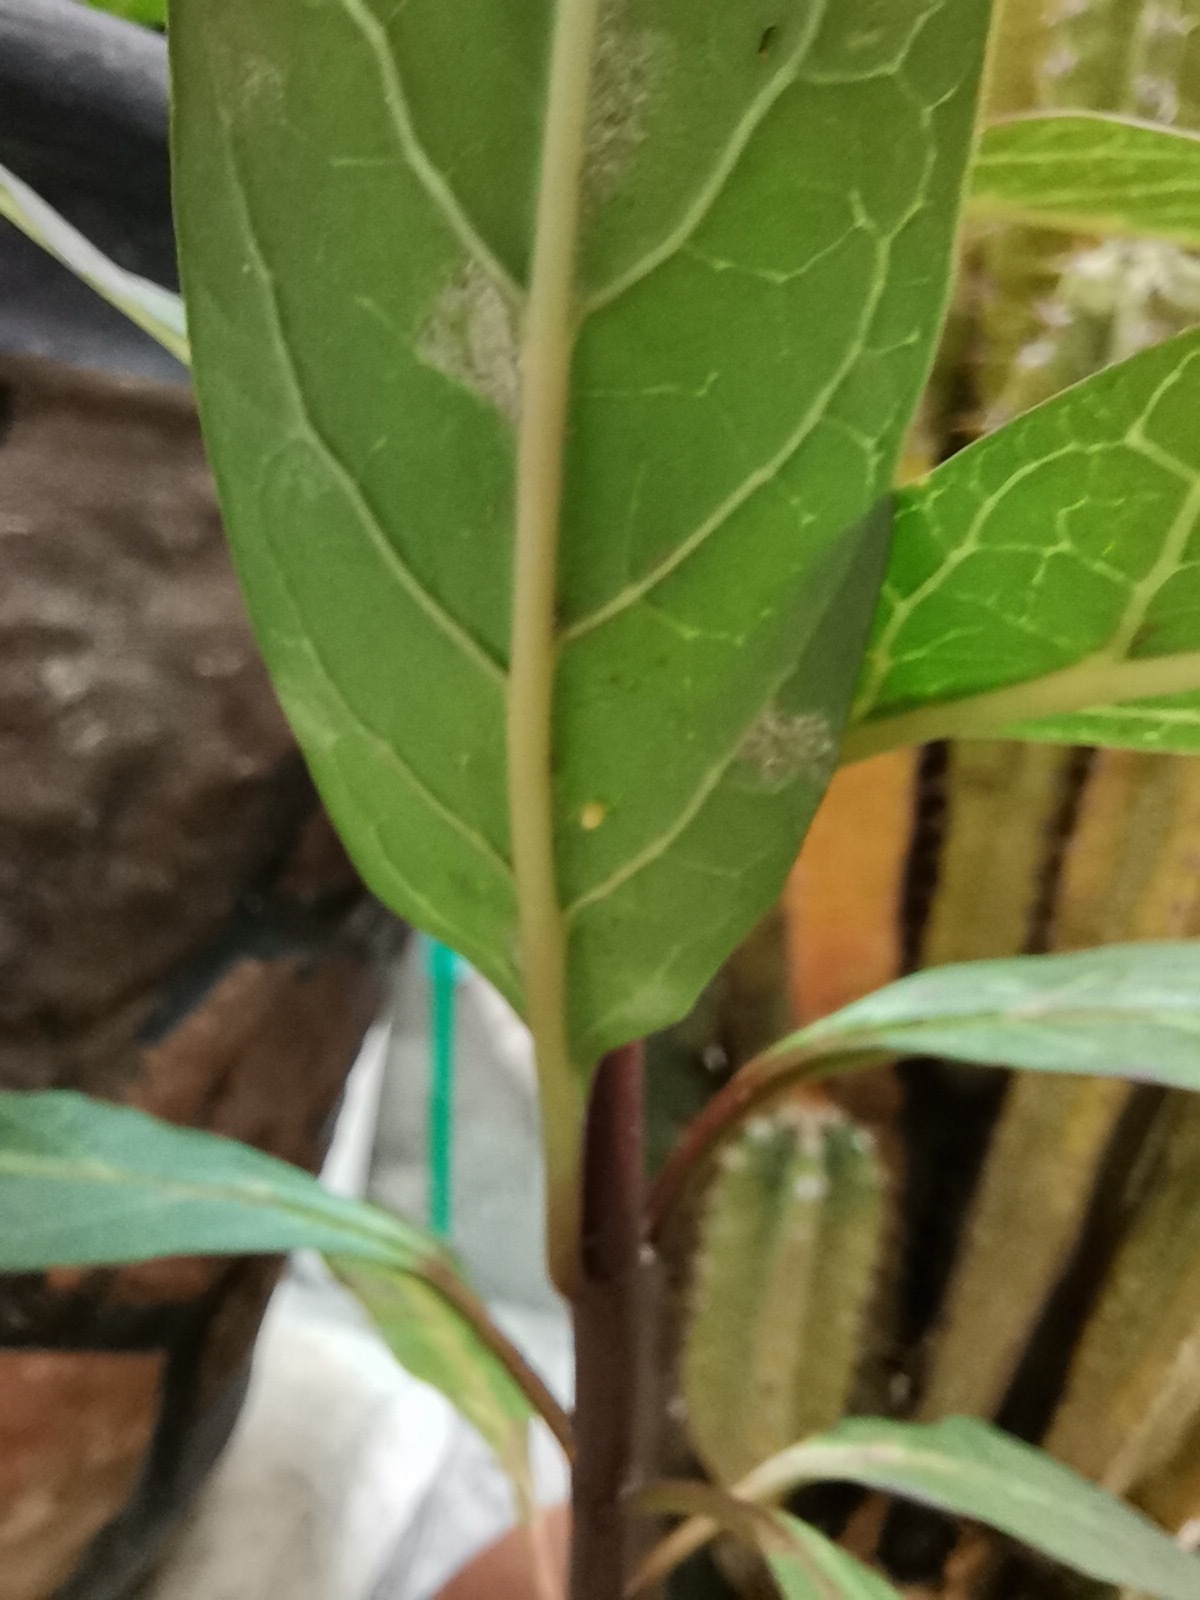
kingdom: Animalia
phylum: Arthropoda
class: Insecta
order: Lepidoptera
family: Nymphalidae
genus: Danaus
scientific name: Danaus plexippus
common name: Monarch
